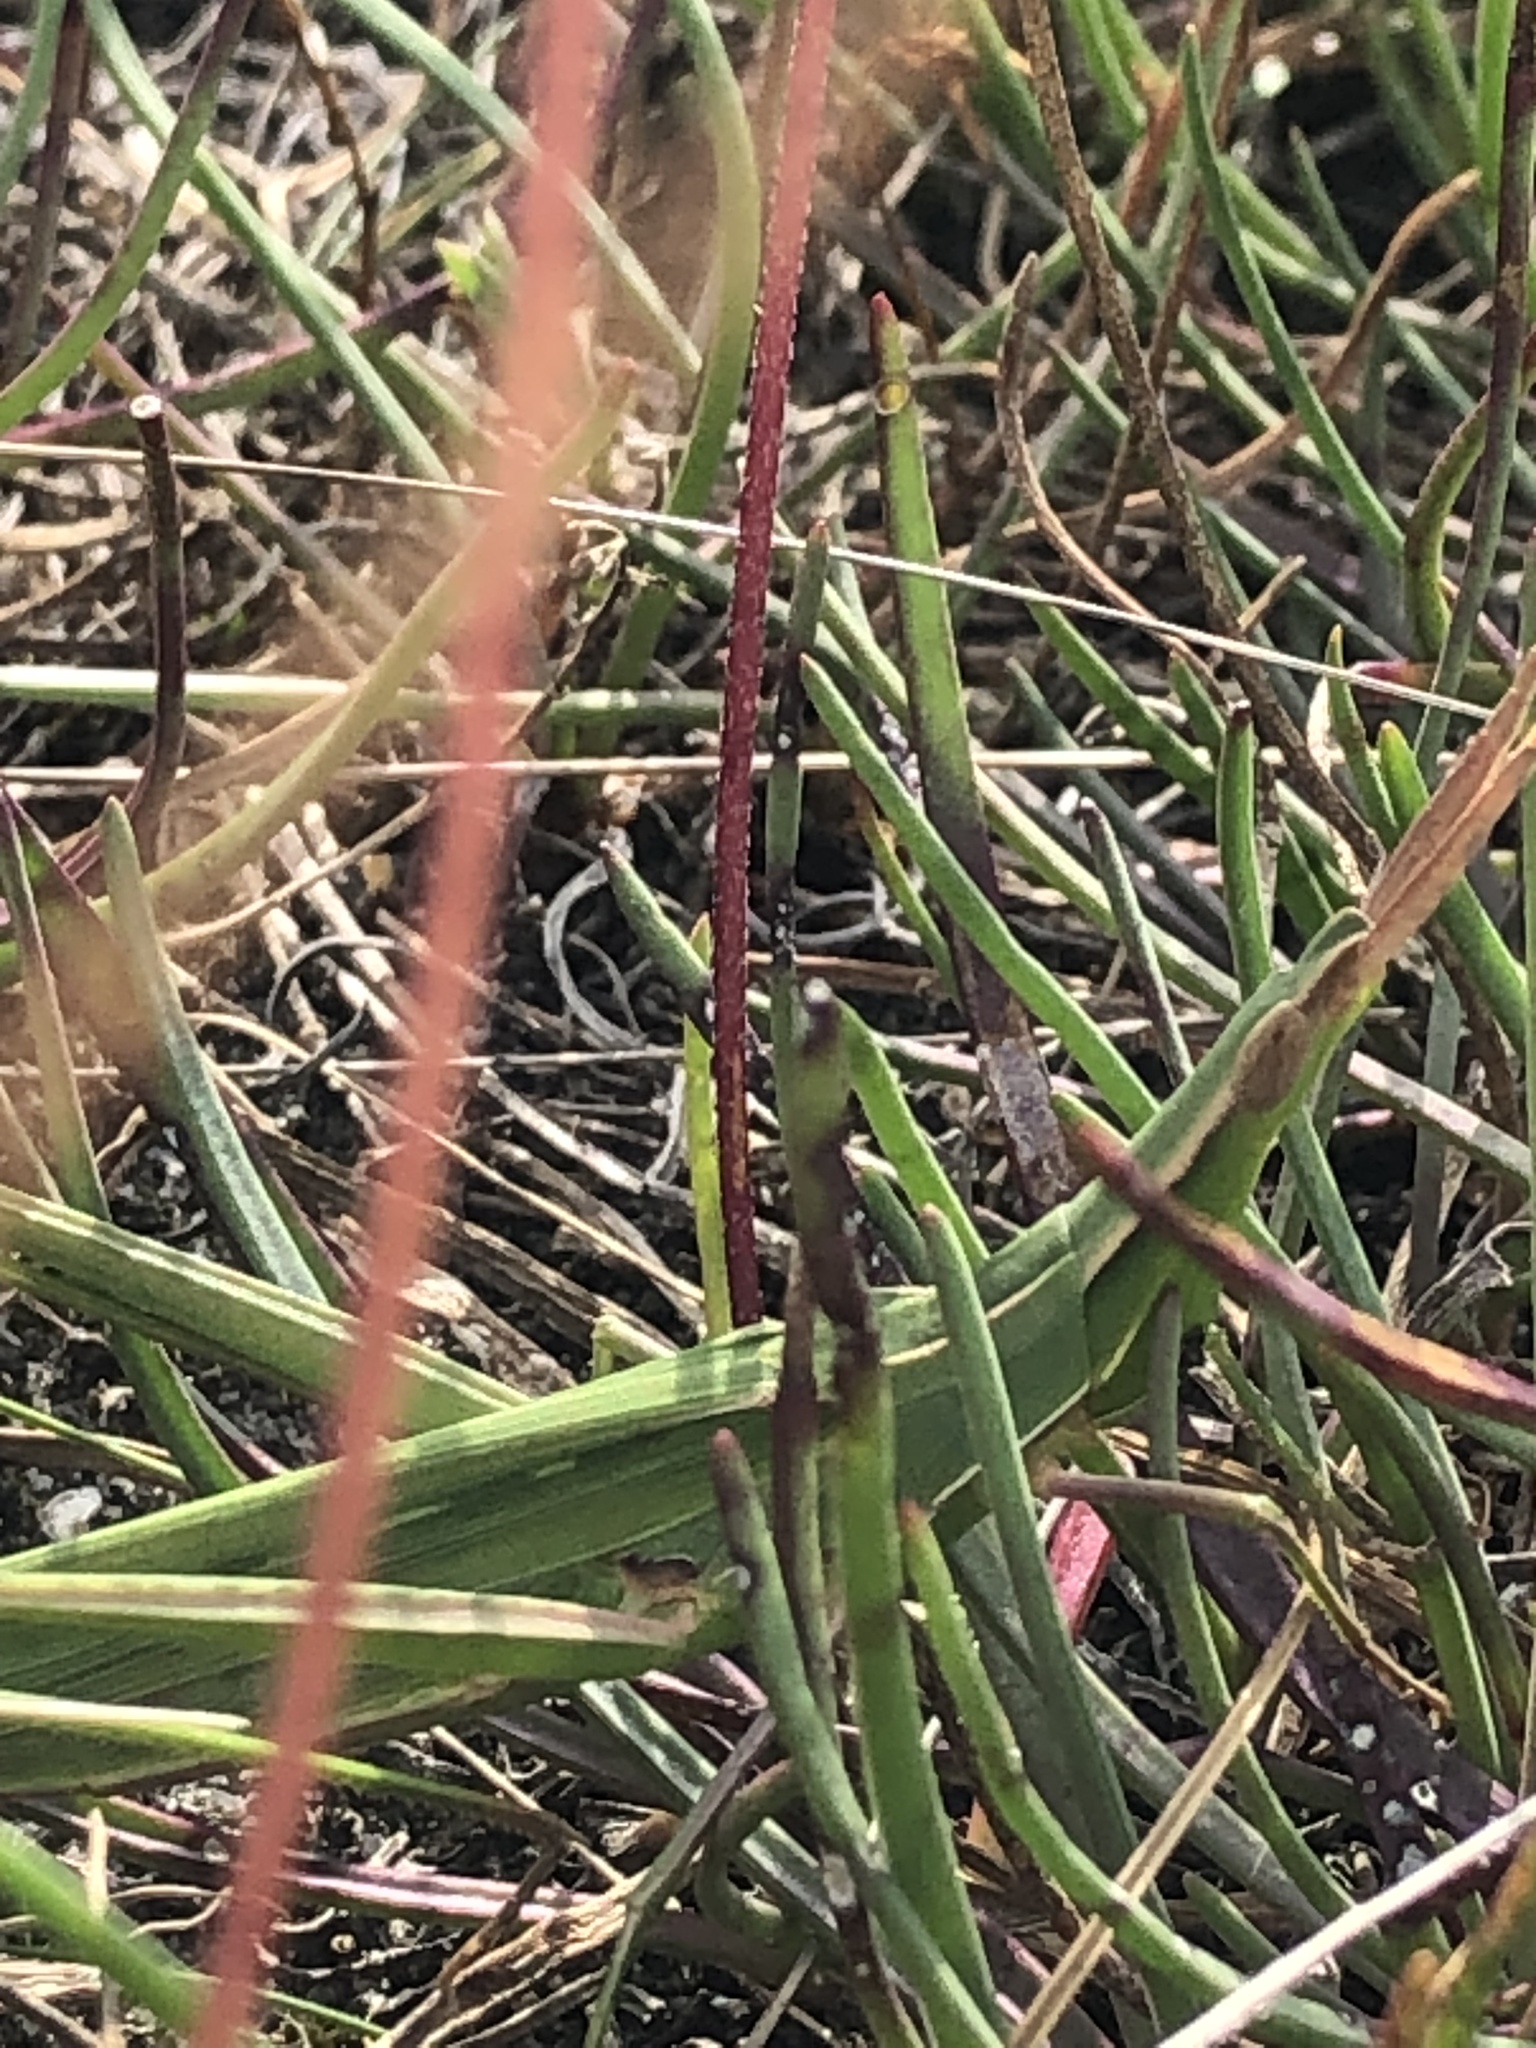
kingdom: Animalia
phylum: Arthropoda
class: Insecta
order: Orthoptera
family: Acrididae
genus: Acrida
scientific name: Acrida ungarica
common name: Common cone-headed grasshopper
